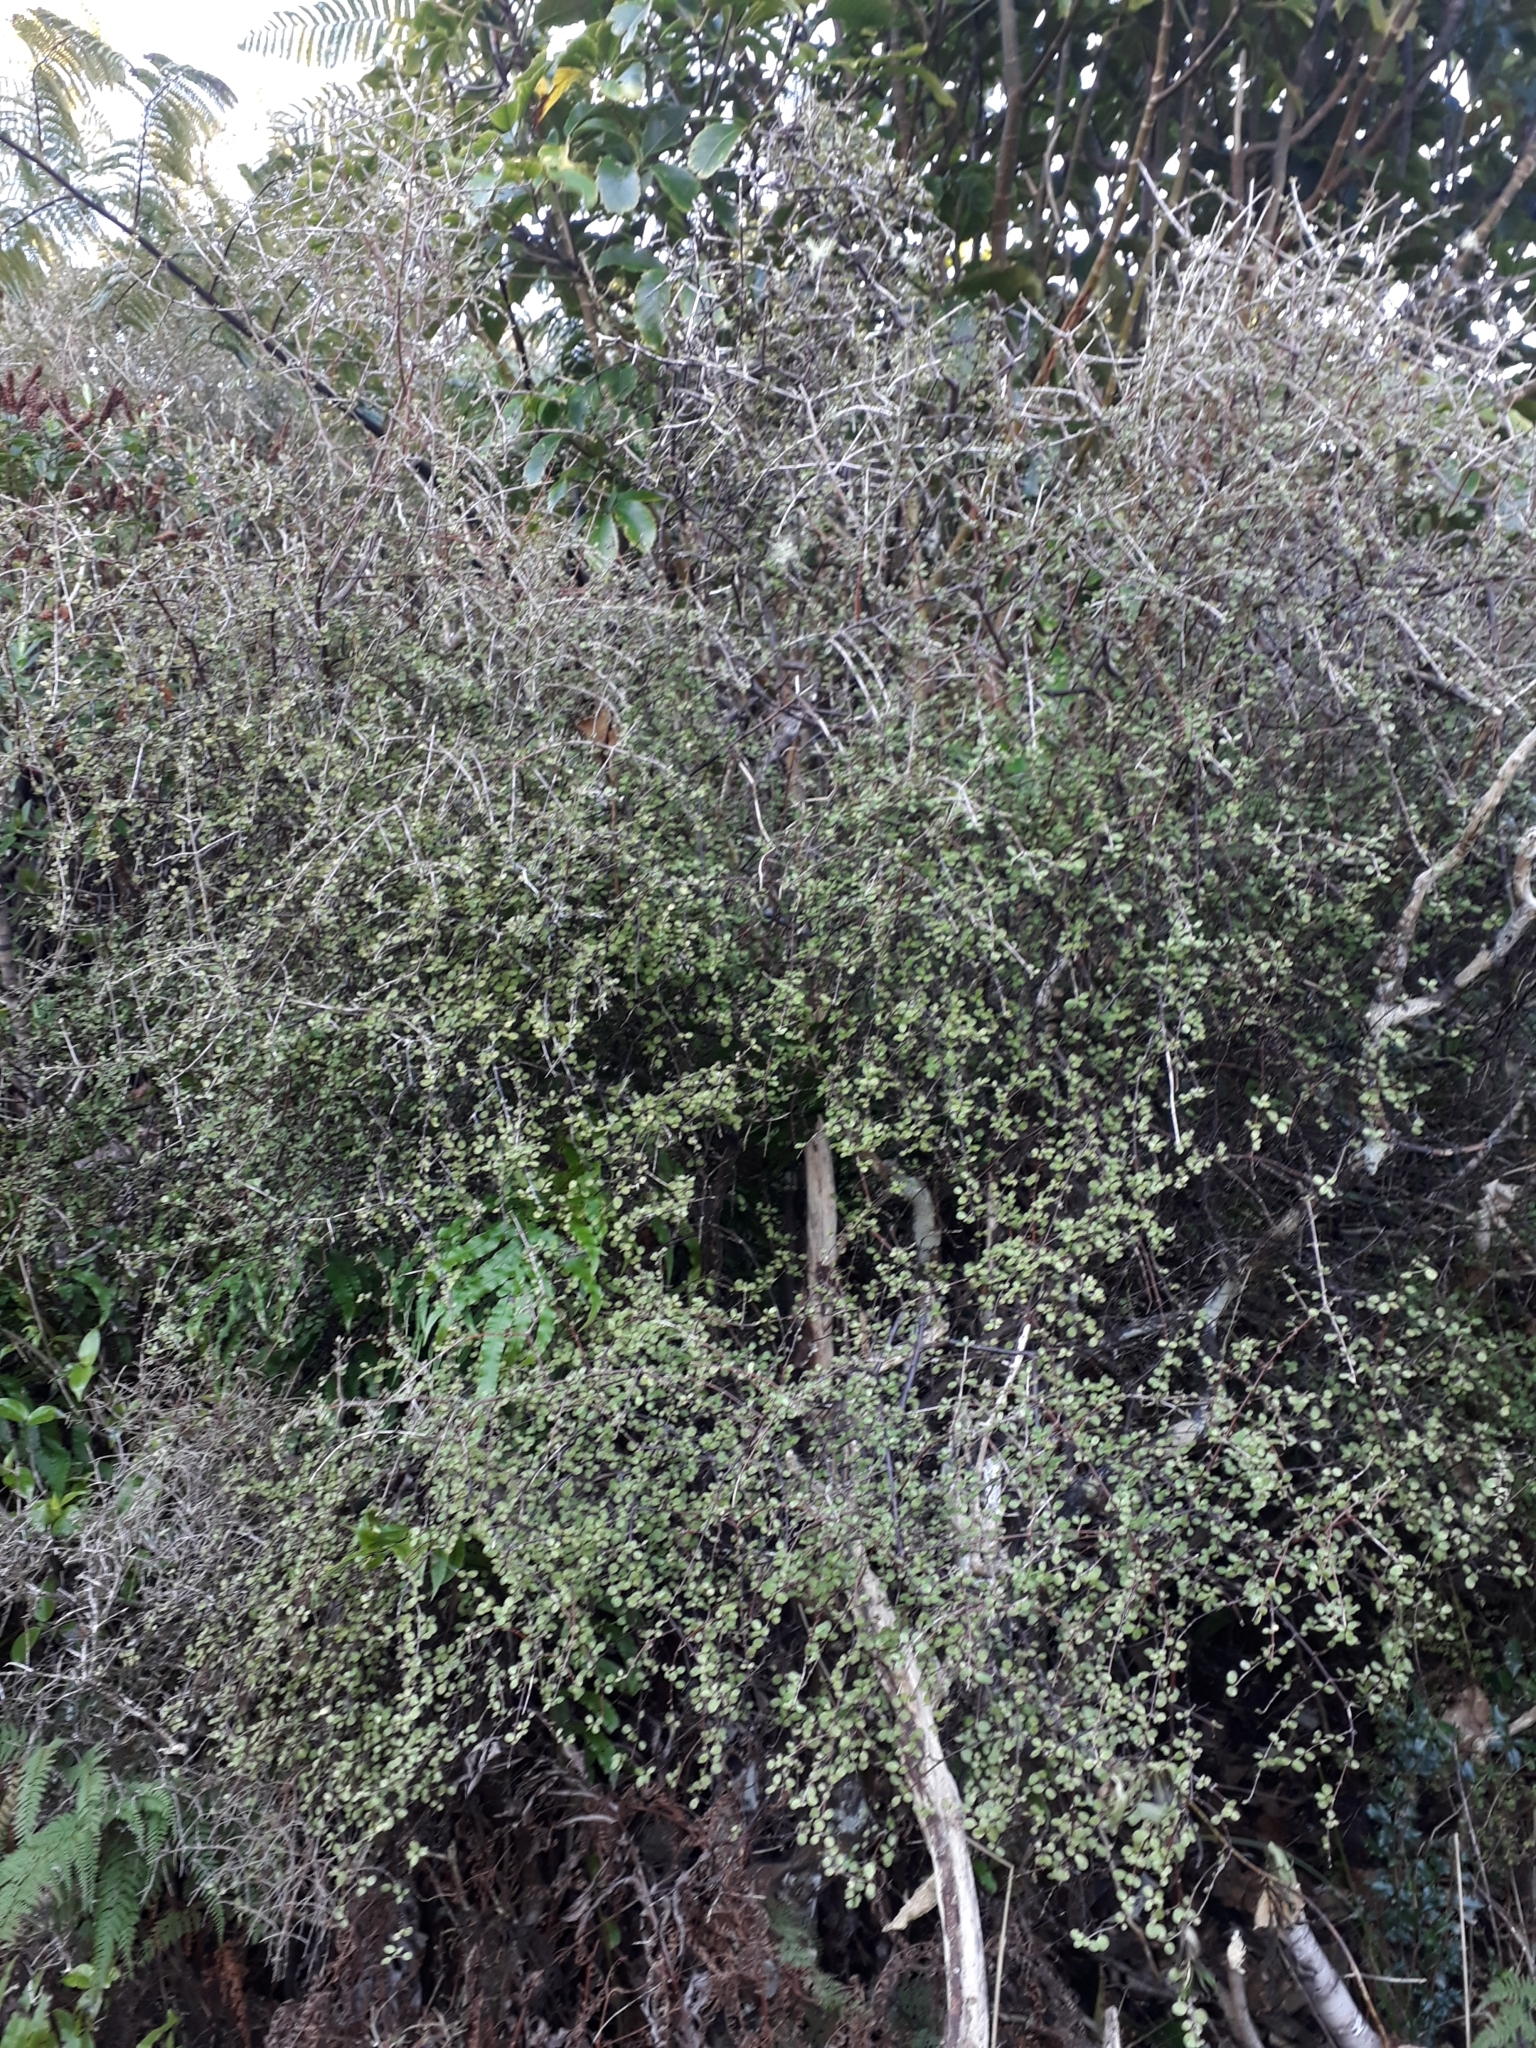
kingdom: Plantae
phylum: Tracheophyta
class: Magnoliopsida
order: Gentianales
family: Rubiaceae
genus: Coprosma
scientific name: Coprosma rigida
